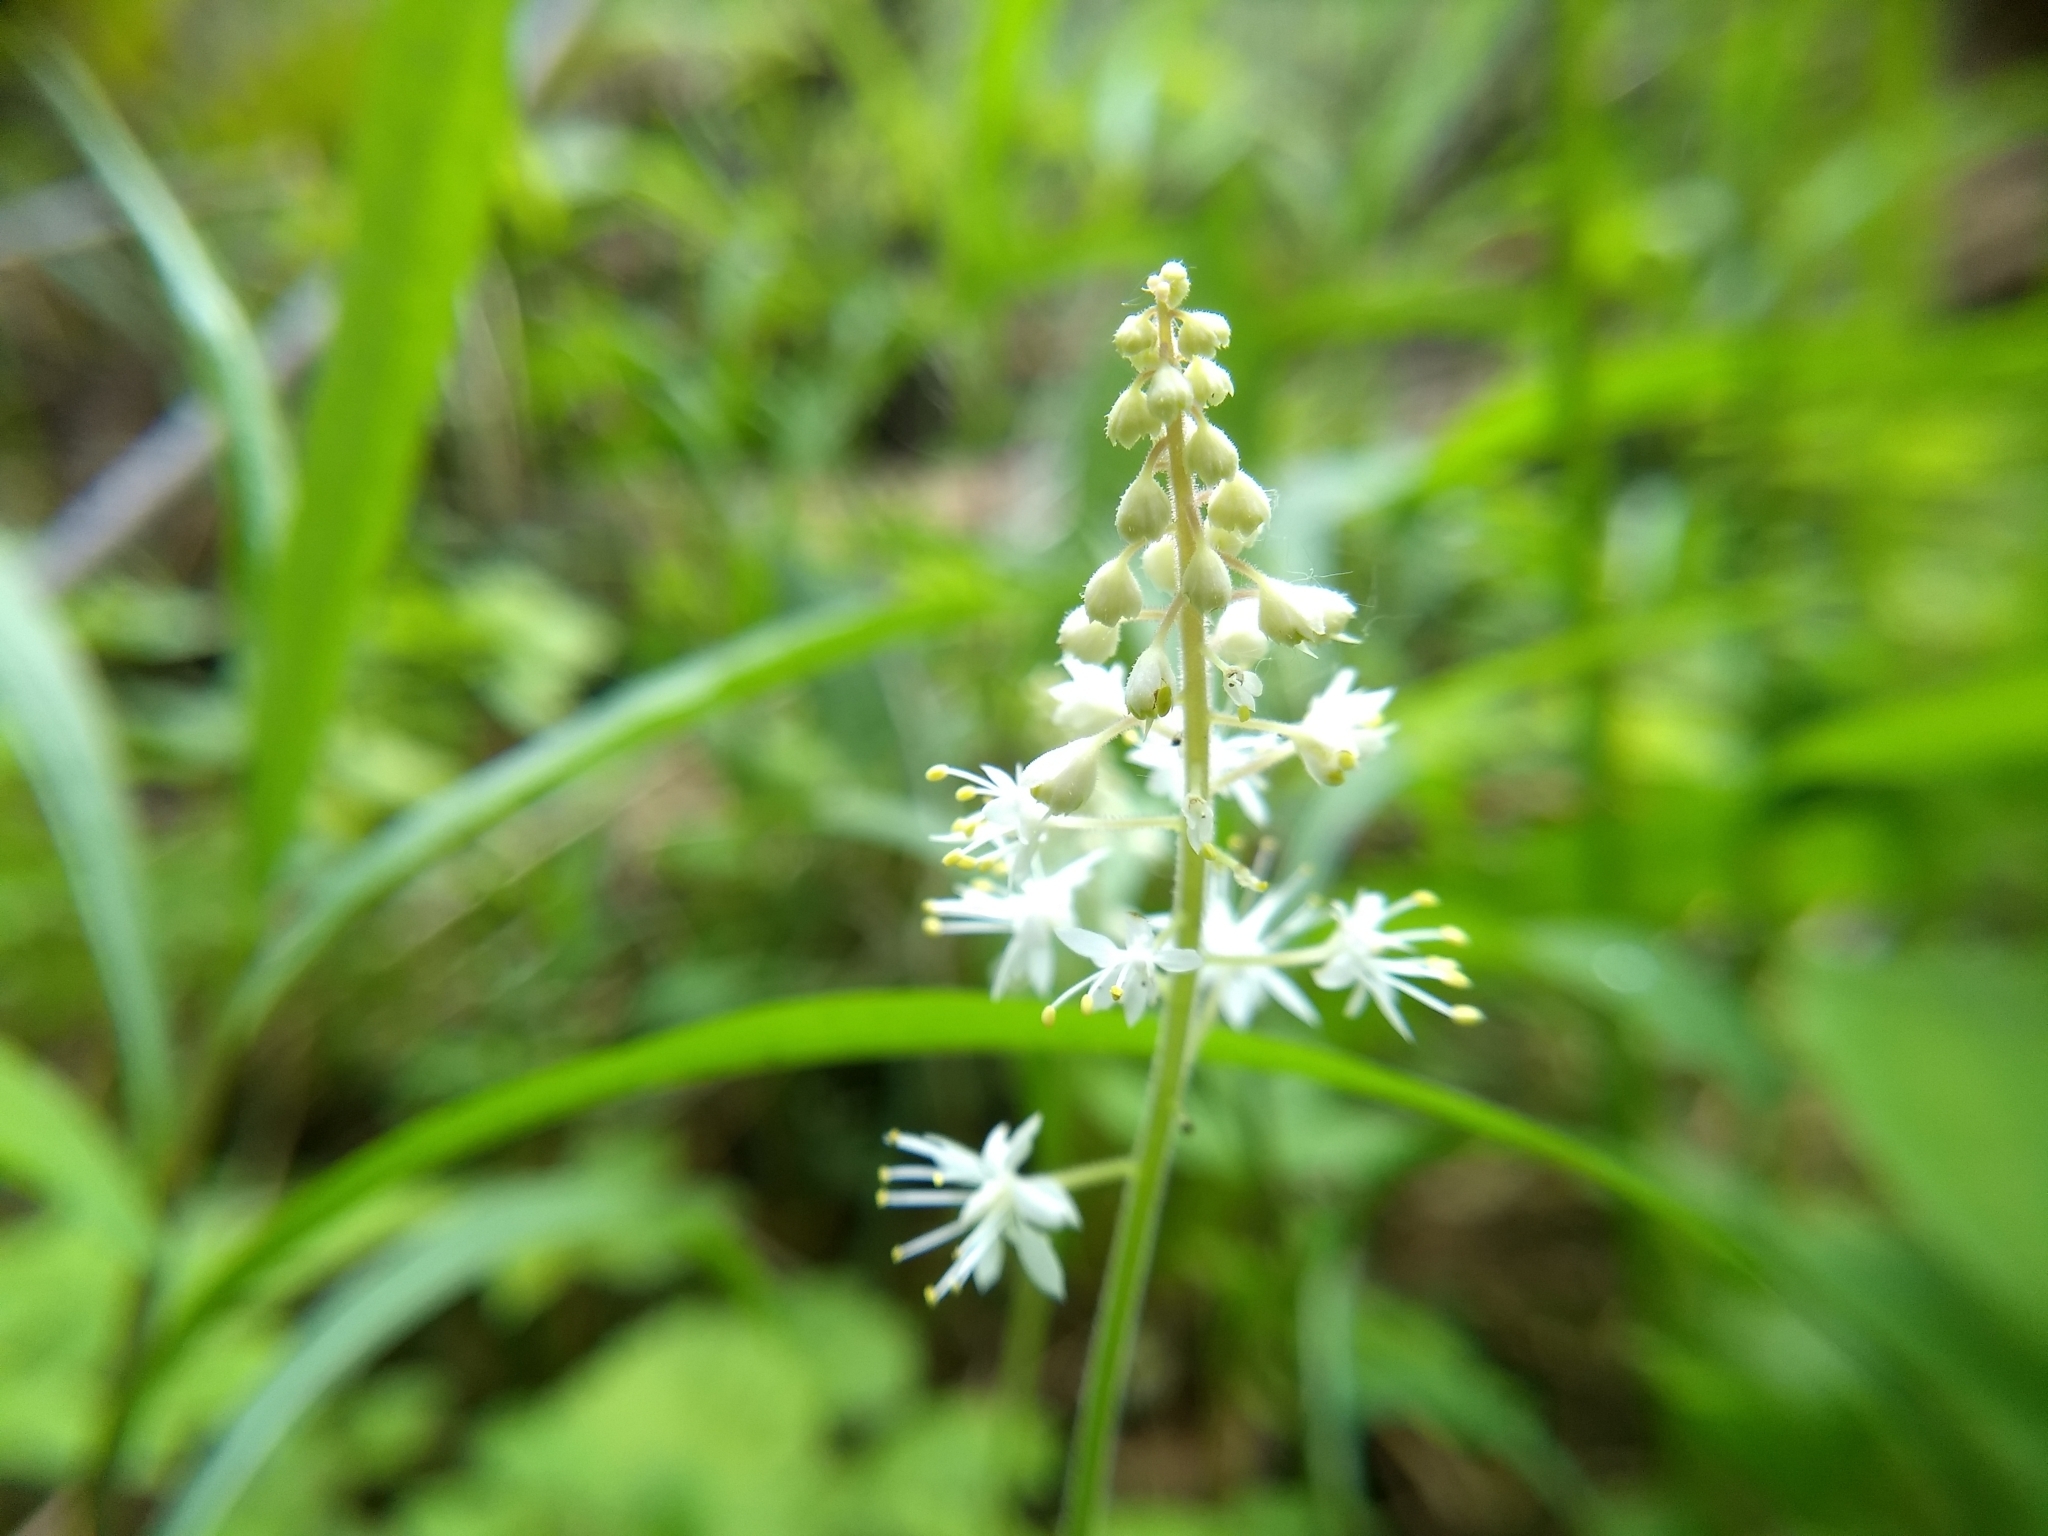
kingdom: Plantae
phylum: Tracheophyta
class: Magnoliopsida
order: Saxifragales
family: Saxifragaceae
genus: Tiarella
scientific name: Tiarella stolonifera
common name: Stoloniferous foamflower
